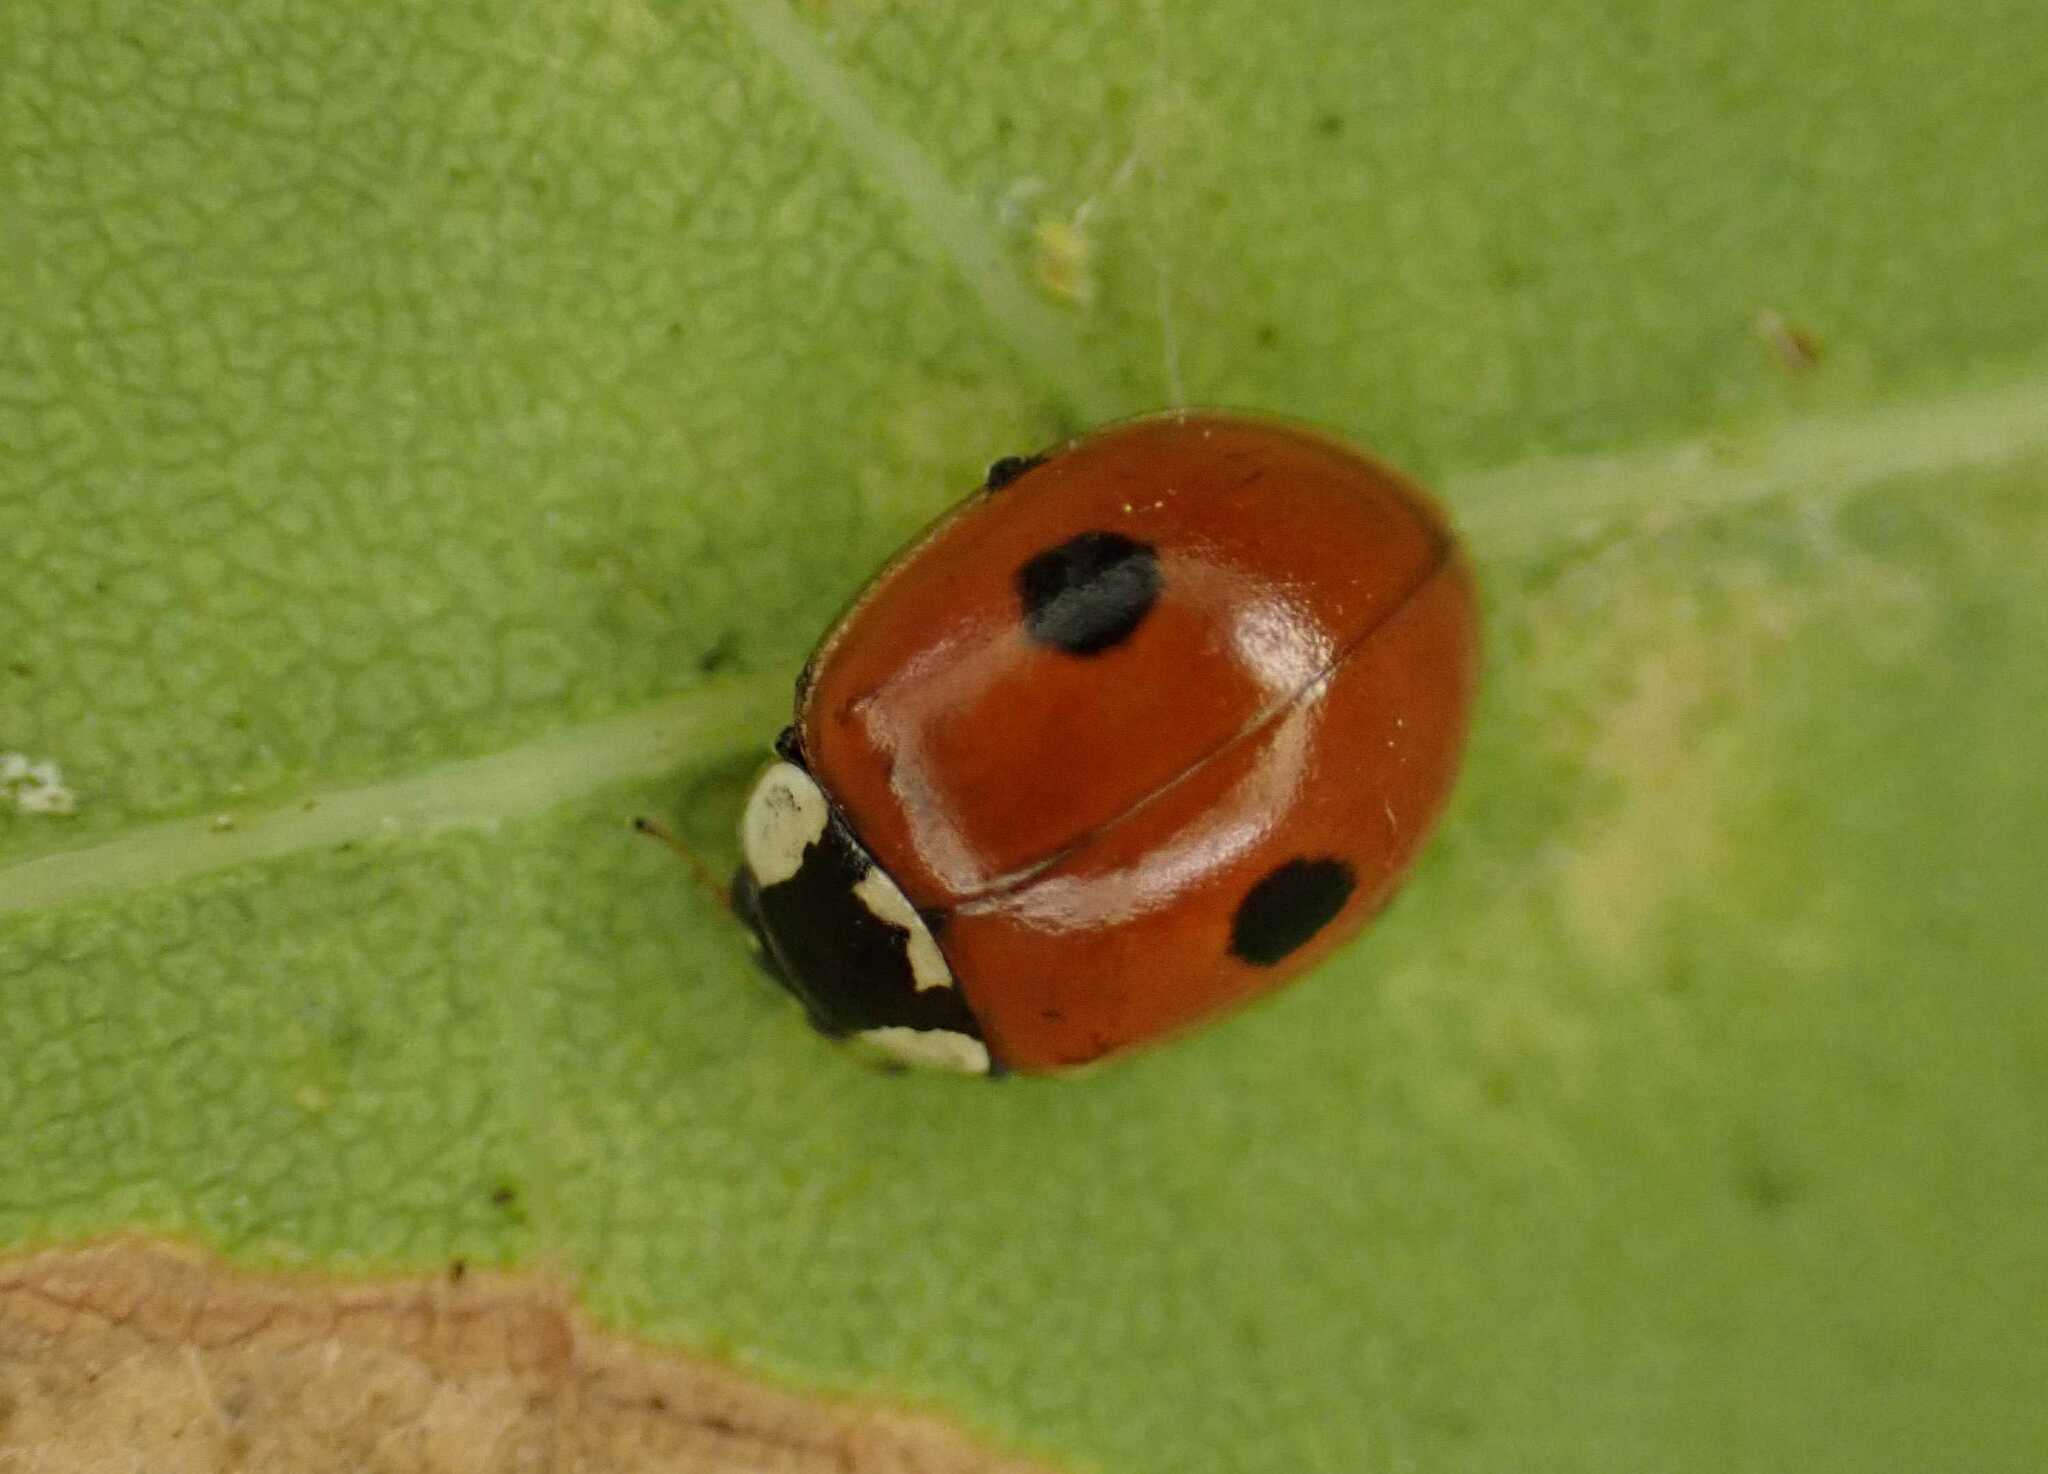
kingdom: Animalia
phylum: Arthropoda
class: Insecta
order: Coleoptera
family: Coccinellidae
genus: Adalia
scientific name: Adalia bipunctata
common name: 2-spot ladybird
